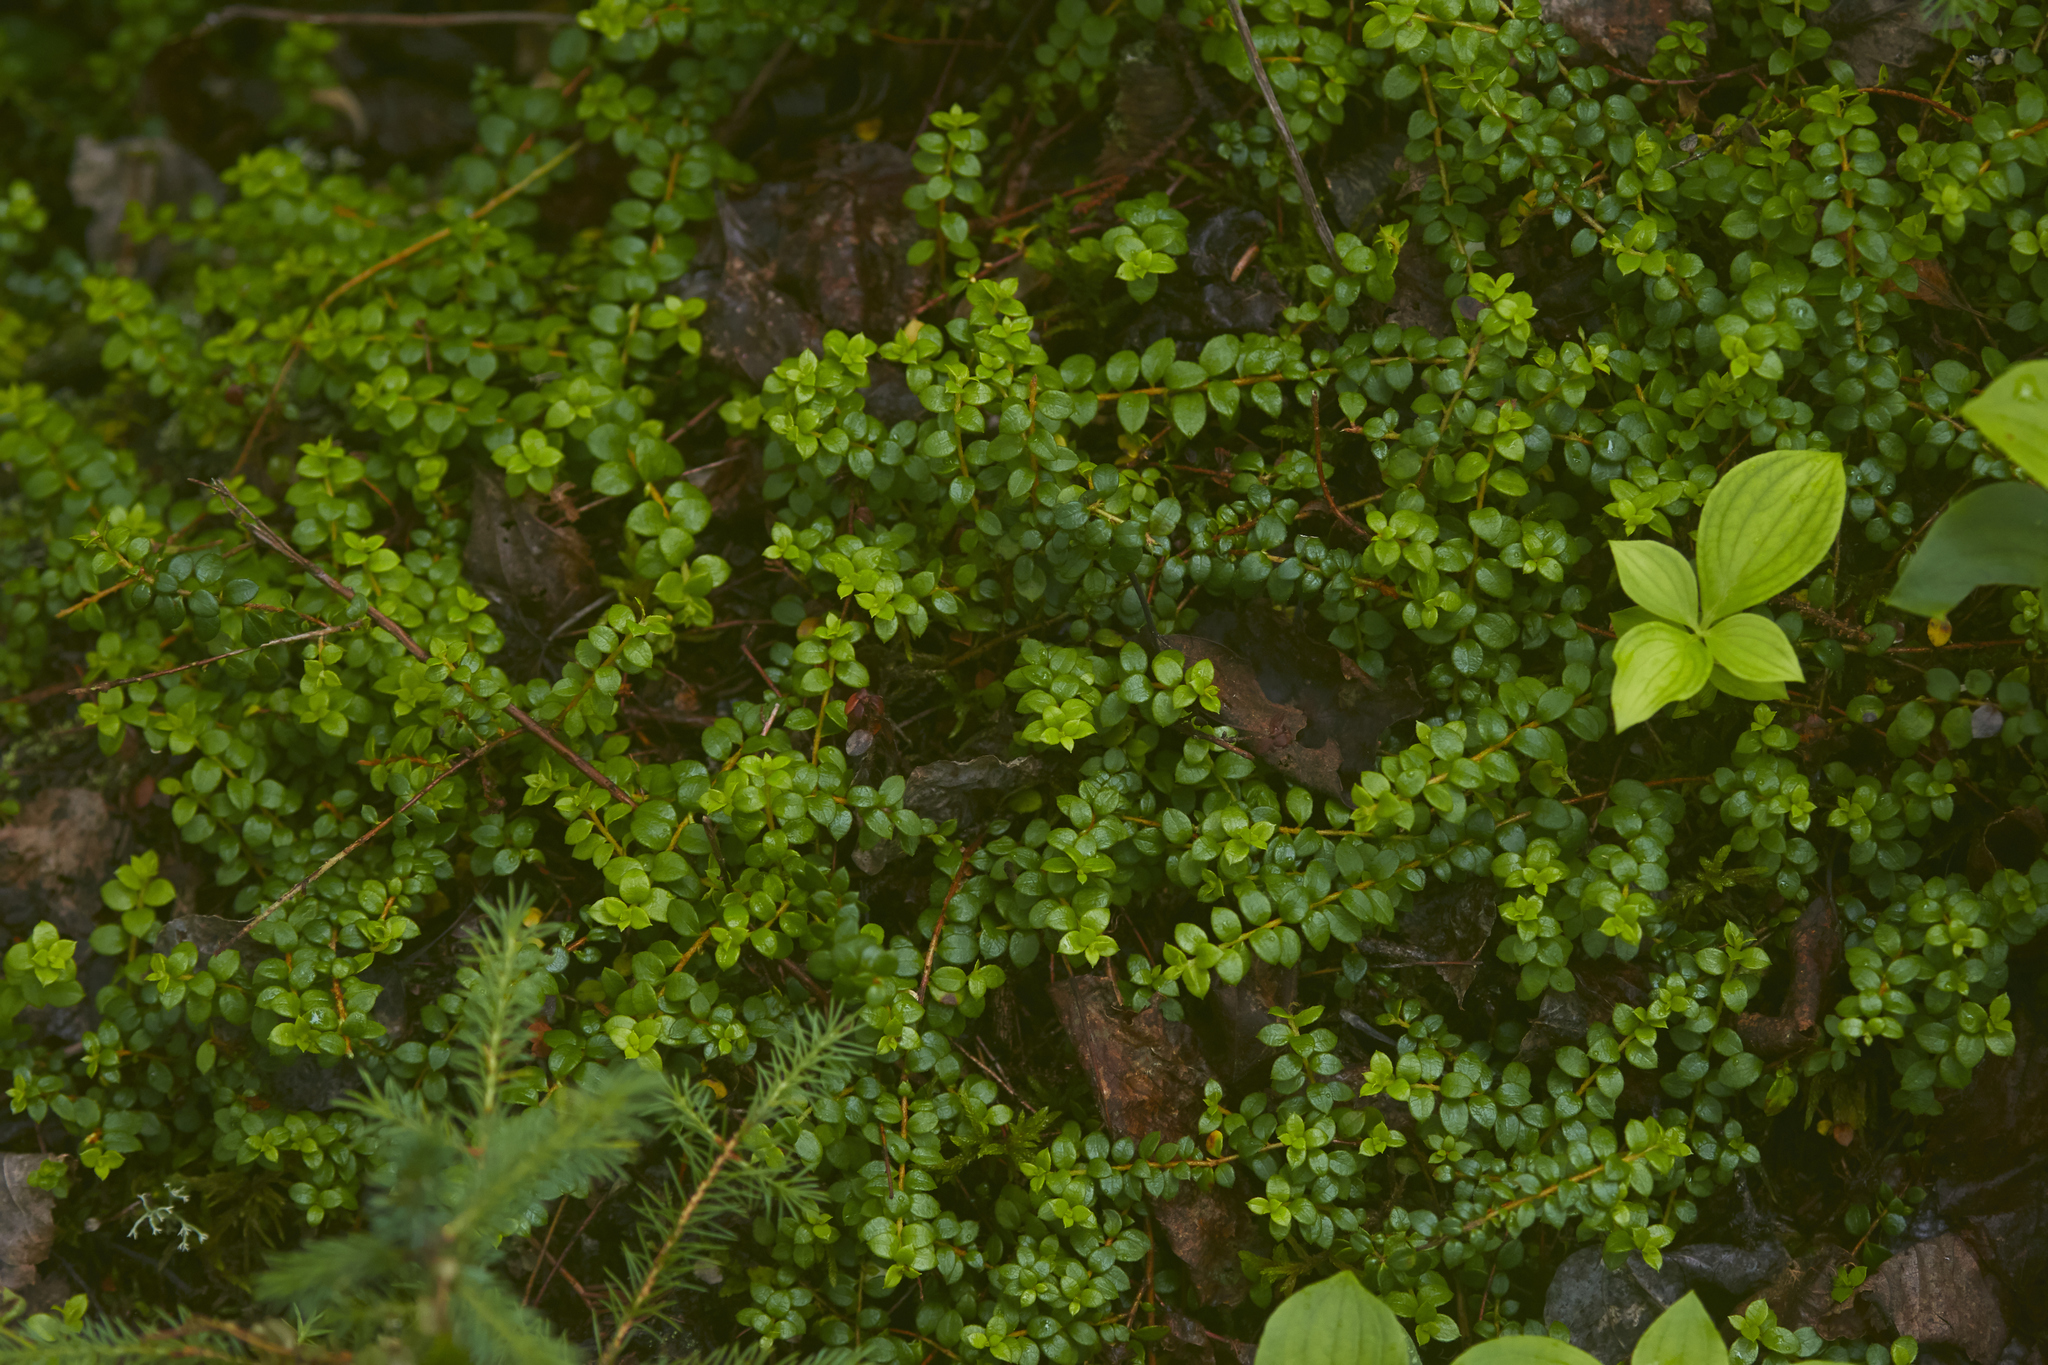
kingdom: Plantae
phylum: Tracheophyta
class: Magnoliopsida
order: Ericales
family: Ericaceae
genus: Gaultheria
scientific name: Gaultheria hispidula
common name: Cancer wintergreen
